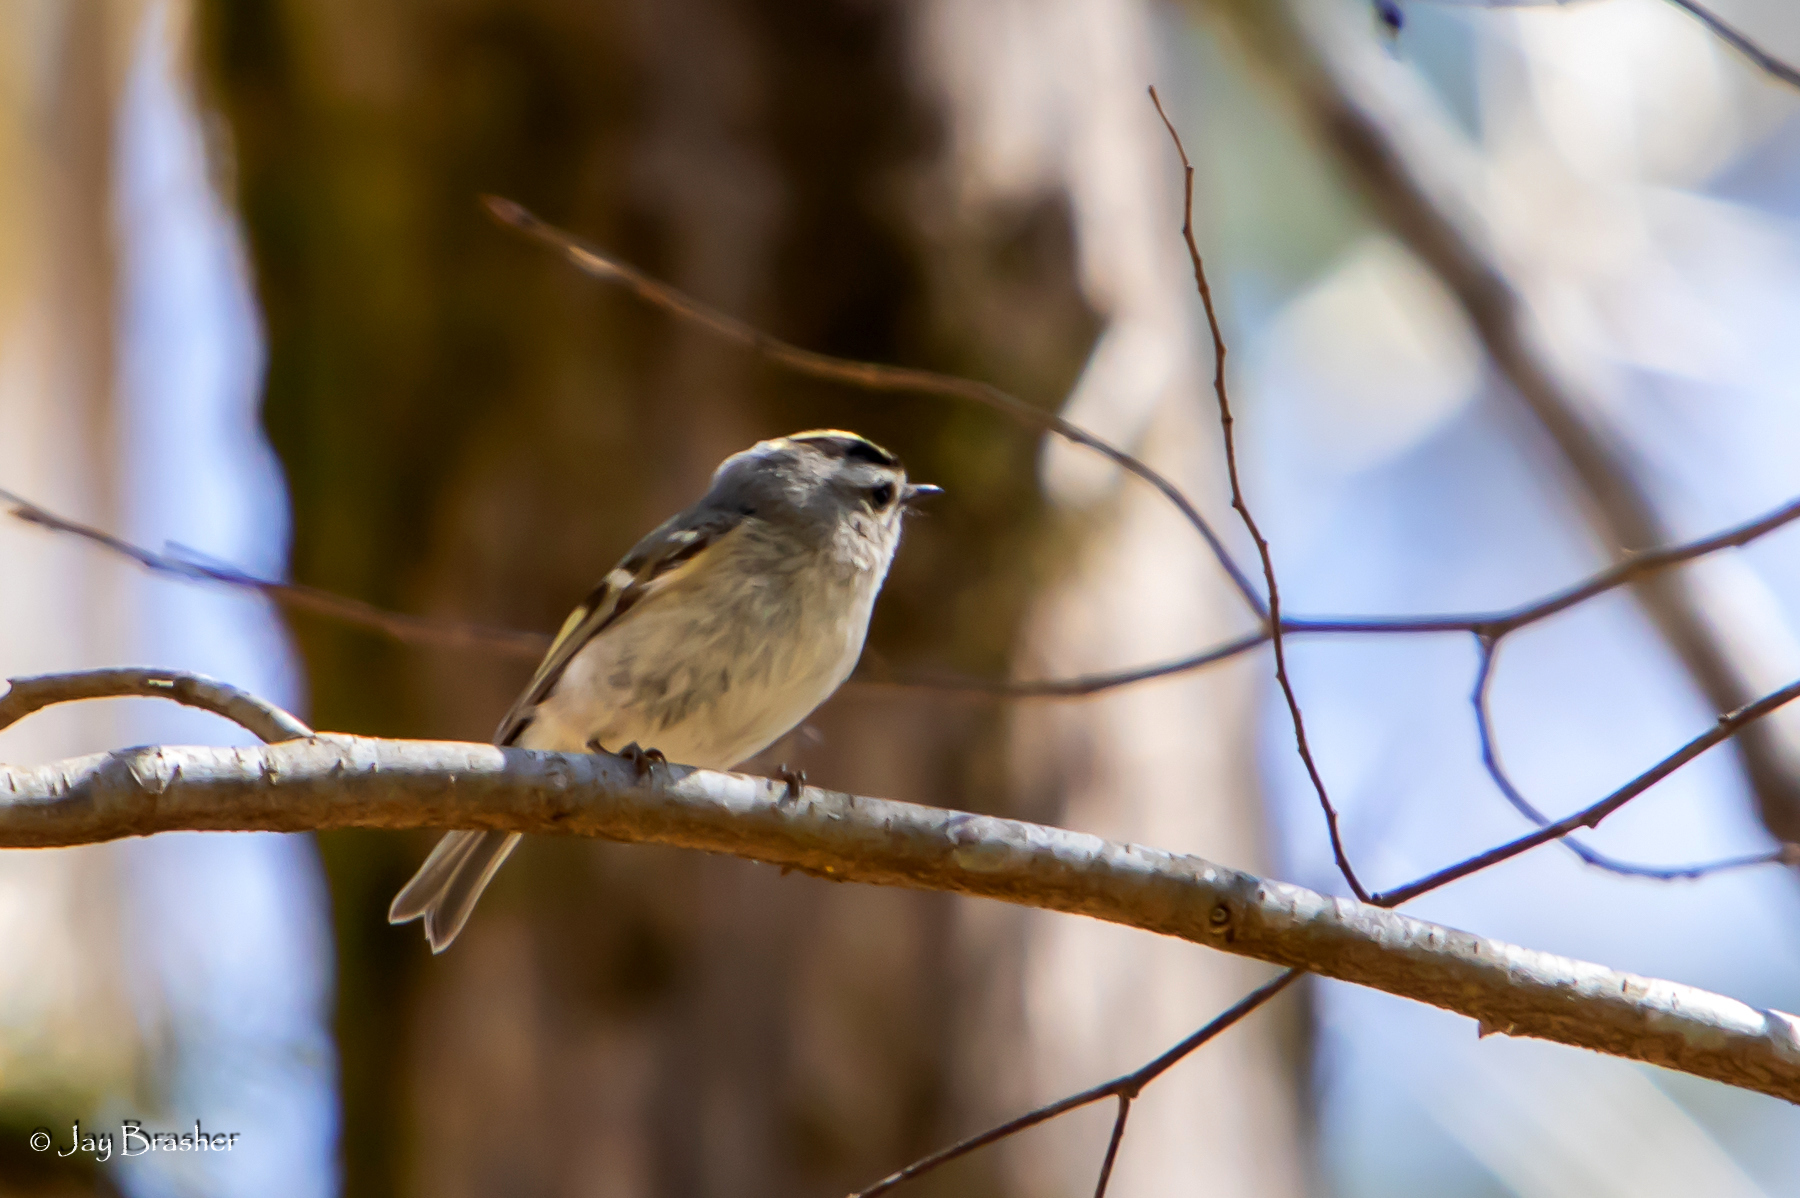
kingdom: Animalia
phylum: Chordata
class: Aves
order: Passeriformes
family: Regulidae
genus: Regulus
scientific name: Regulus satrapa
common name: Golden-crowned kinglet
